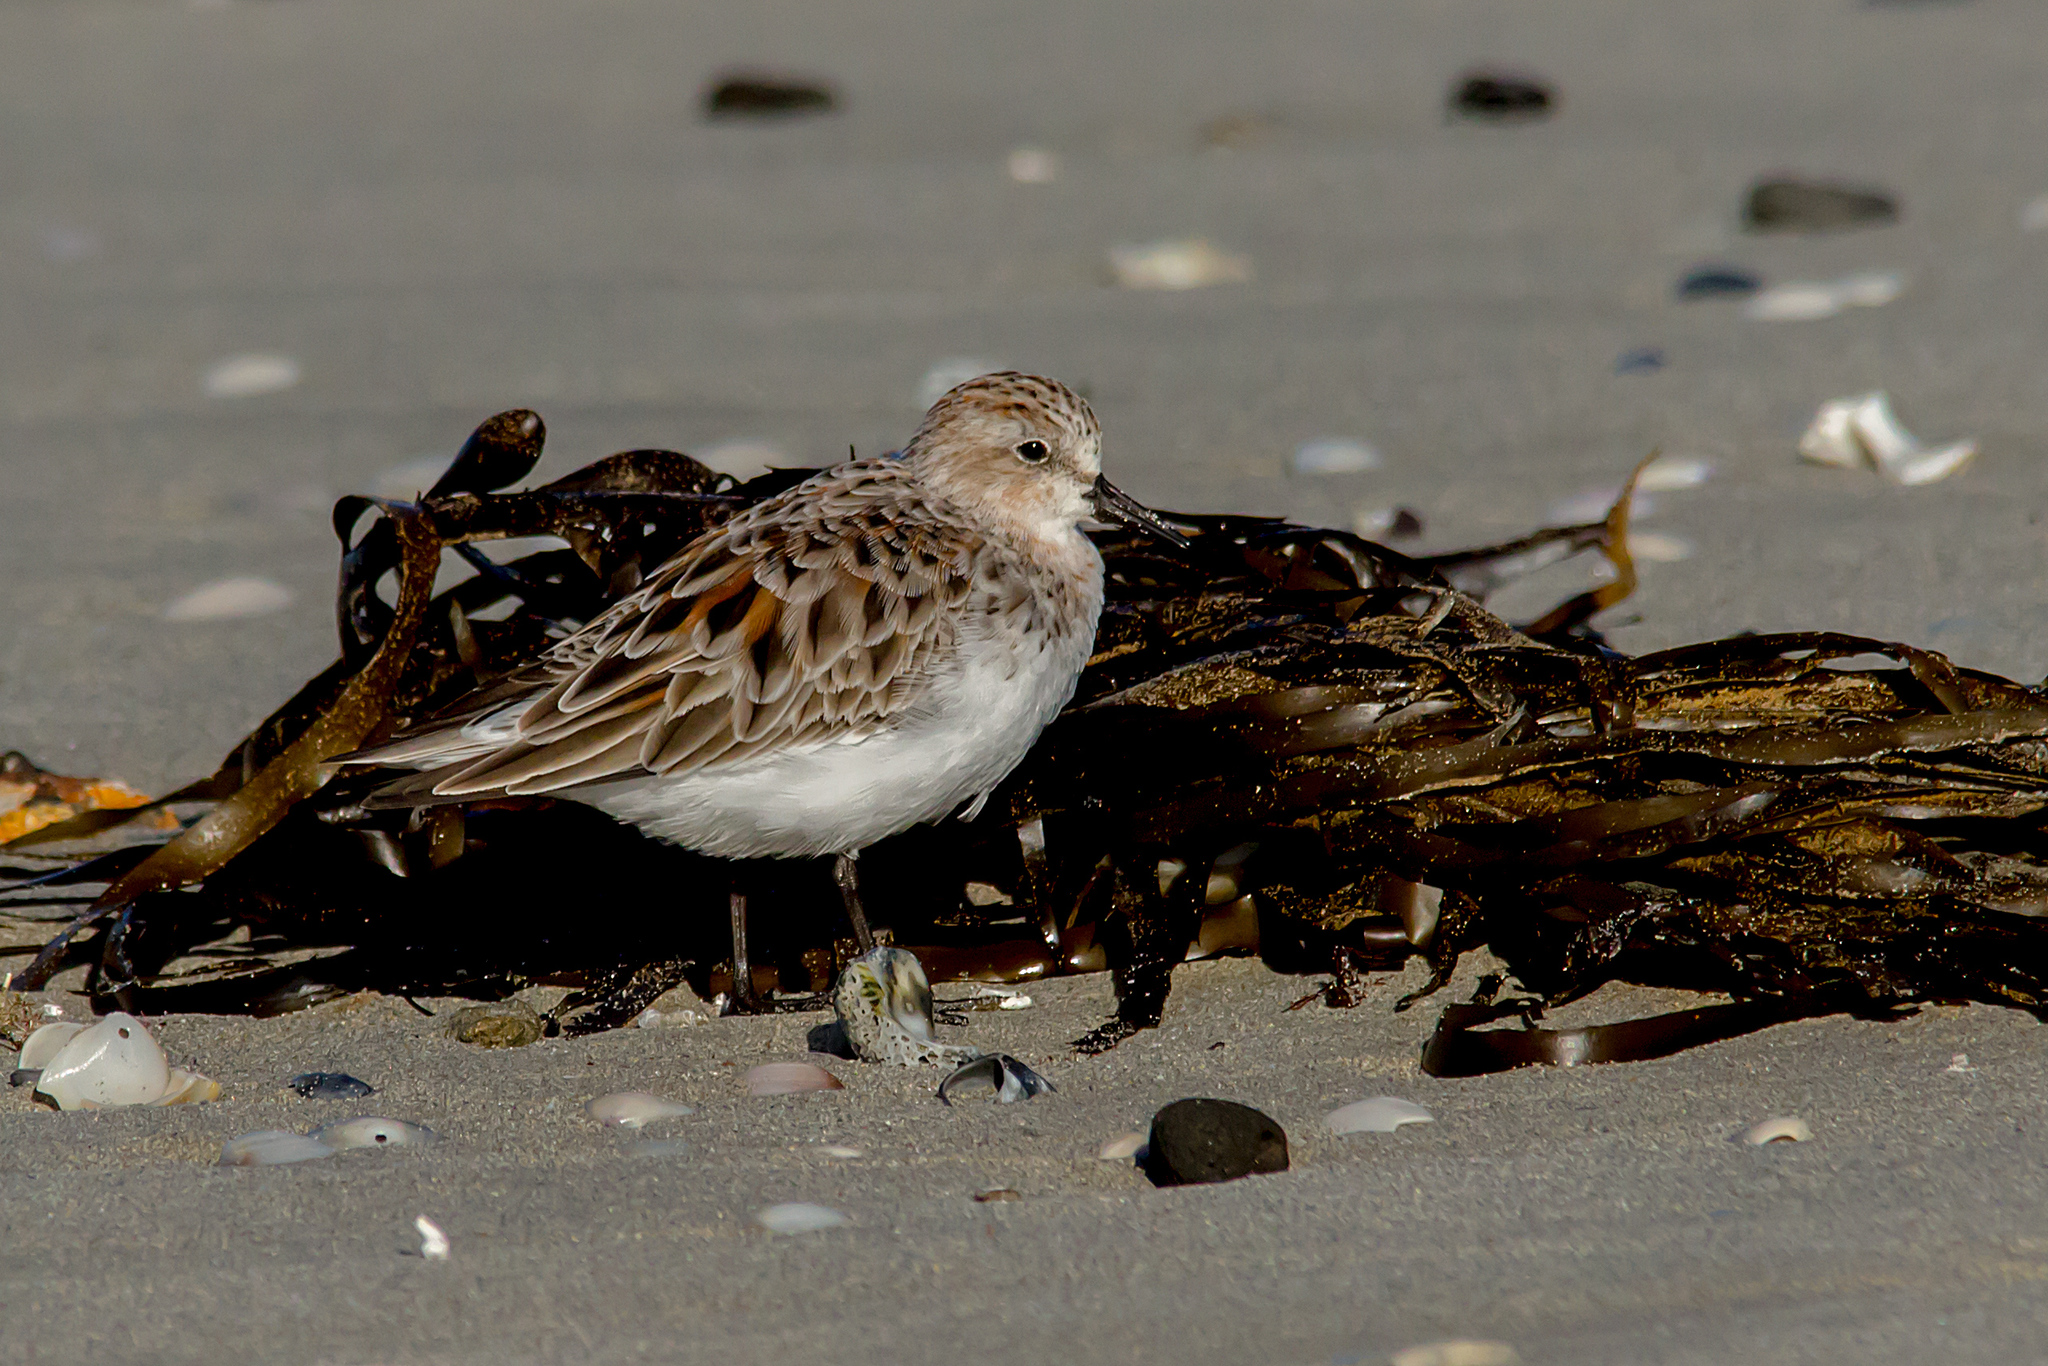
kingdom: Animalia
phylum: Chordata
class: Aves
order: Charadriiformes
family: Scolopacidae
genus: Calidris
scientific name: Calidris ruficollis
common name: Red-necked stint
